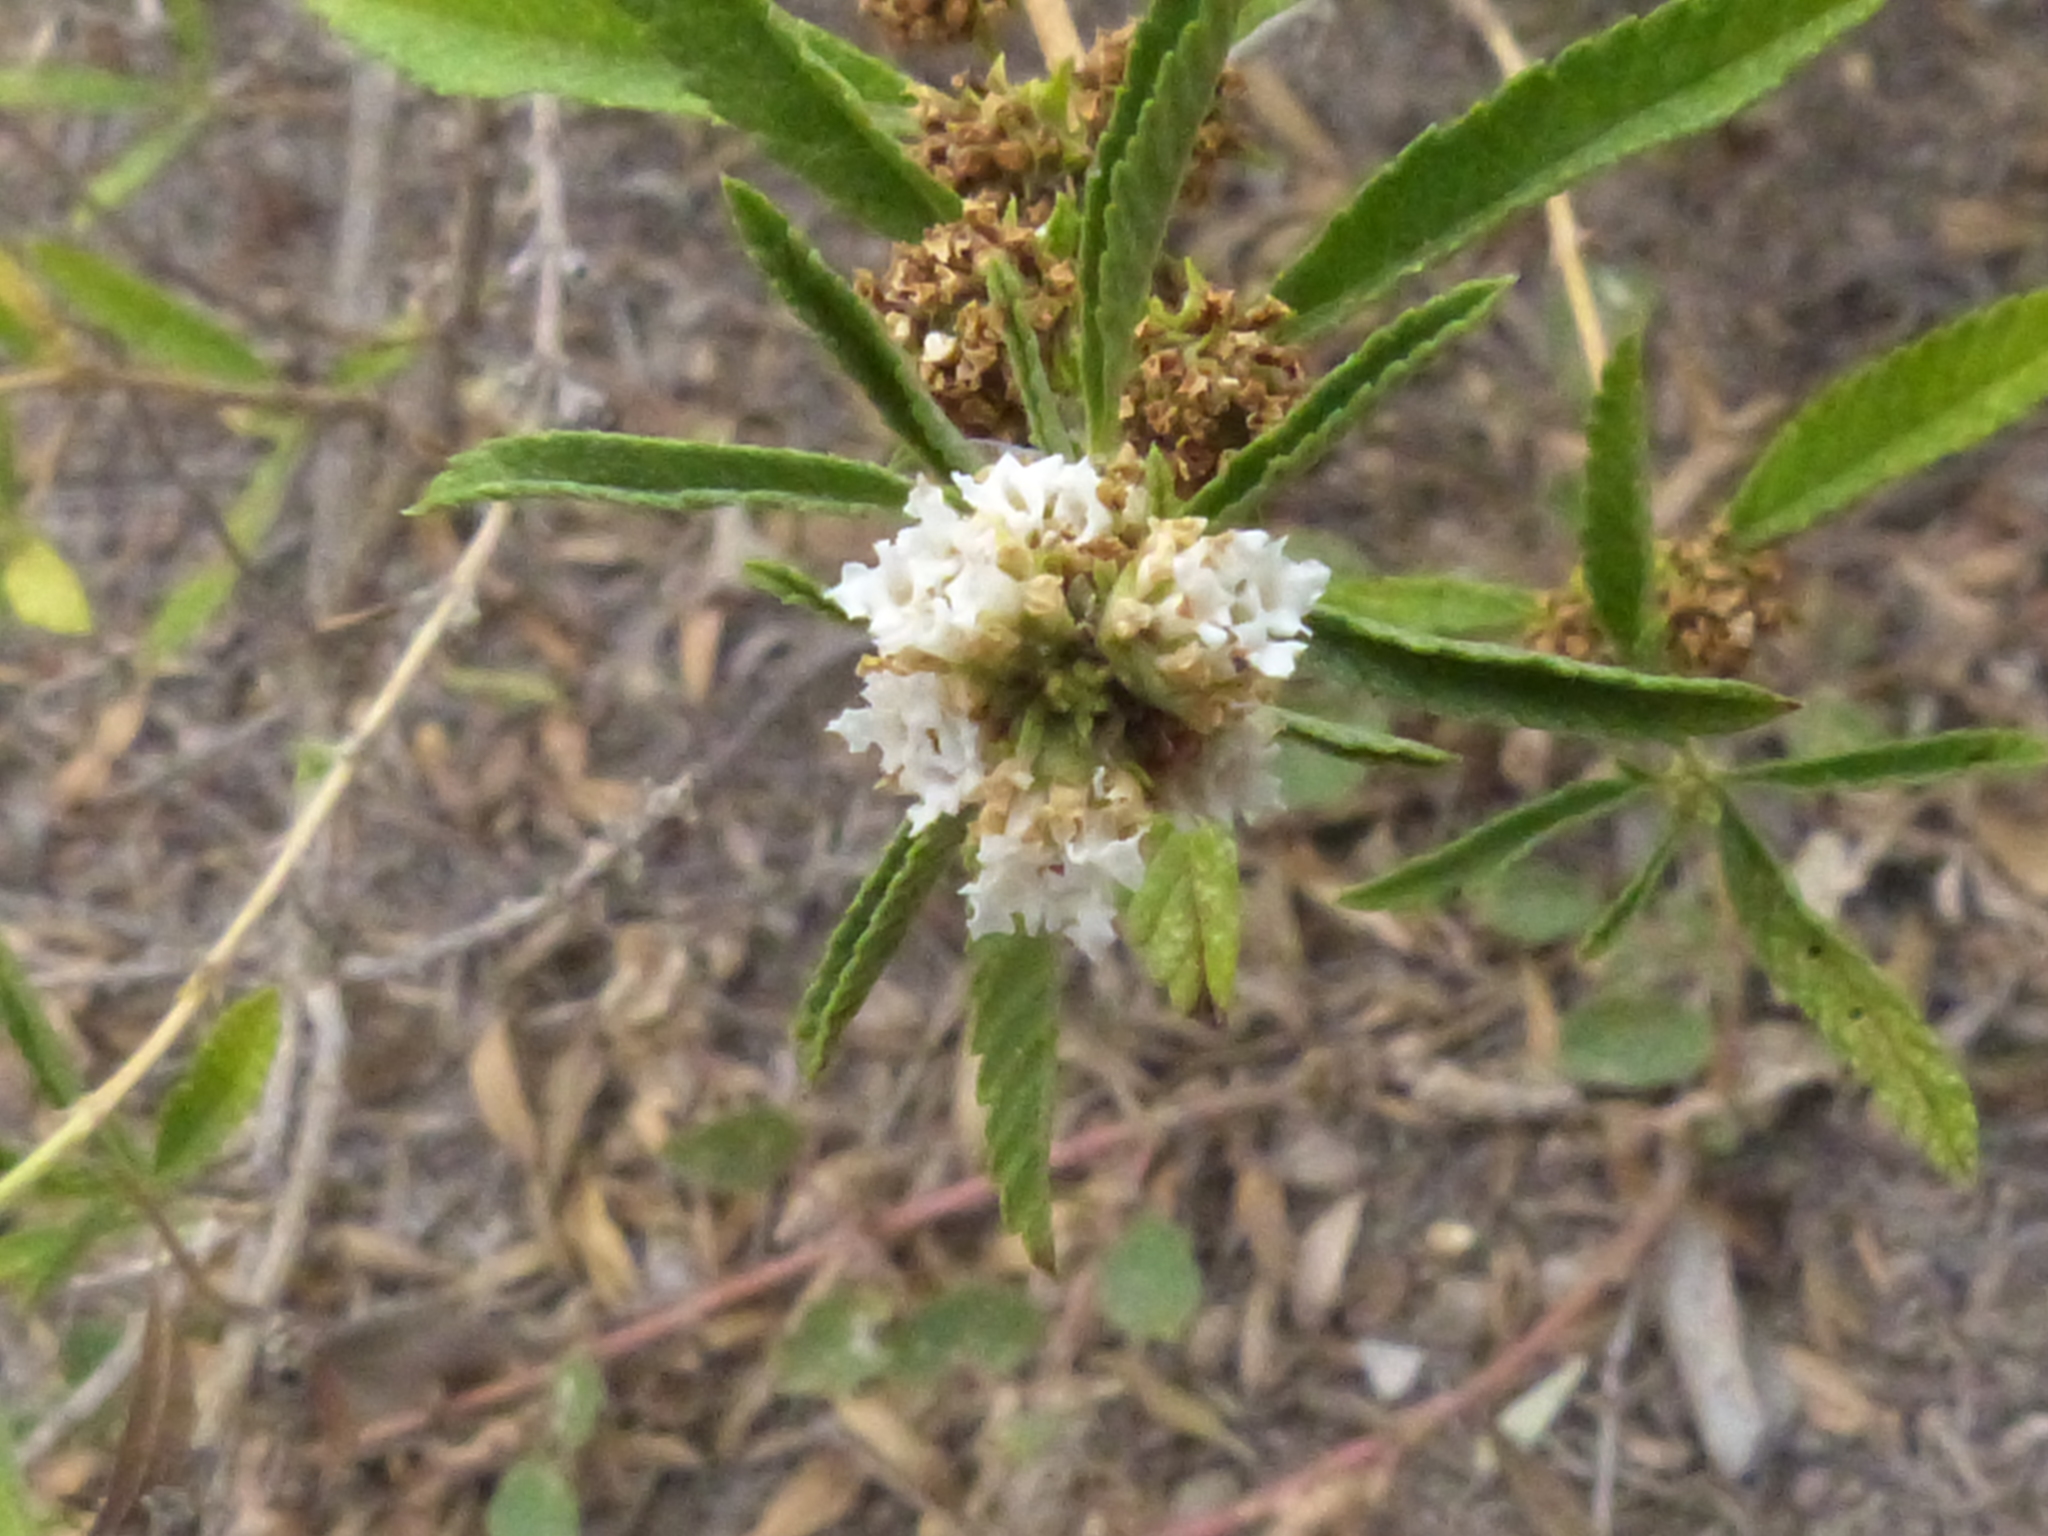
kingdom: Plantae
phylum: Tracheophyta
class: Magnoliopsida
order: Lamiales
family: Verbenaceae
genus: Lippia
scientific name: Lippia turbinata
